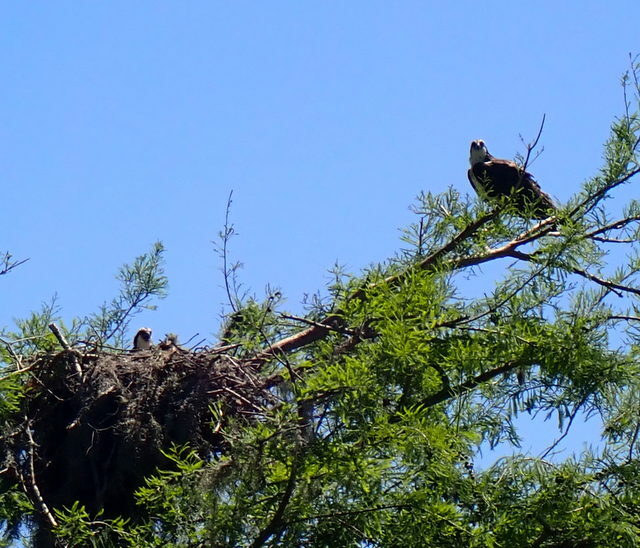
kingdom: Animalia
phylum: Chordata
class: Aves
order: Accipitriformes
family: Pandionidae
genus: Pandion
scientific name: Pandion haliaetus
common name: Osprey
